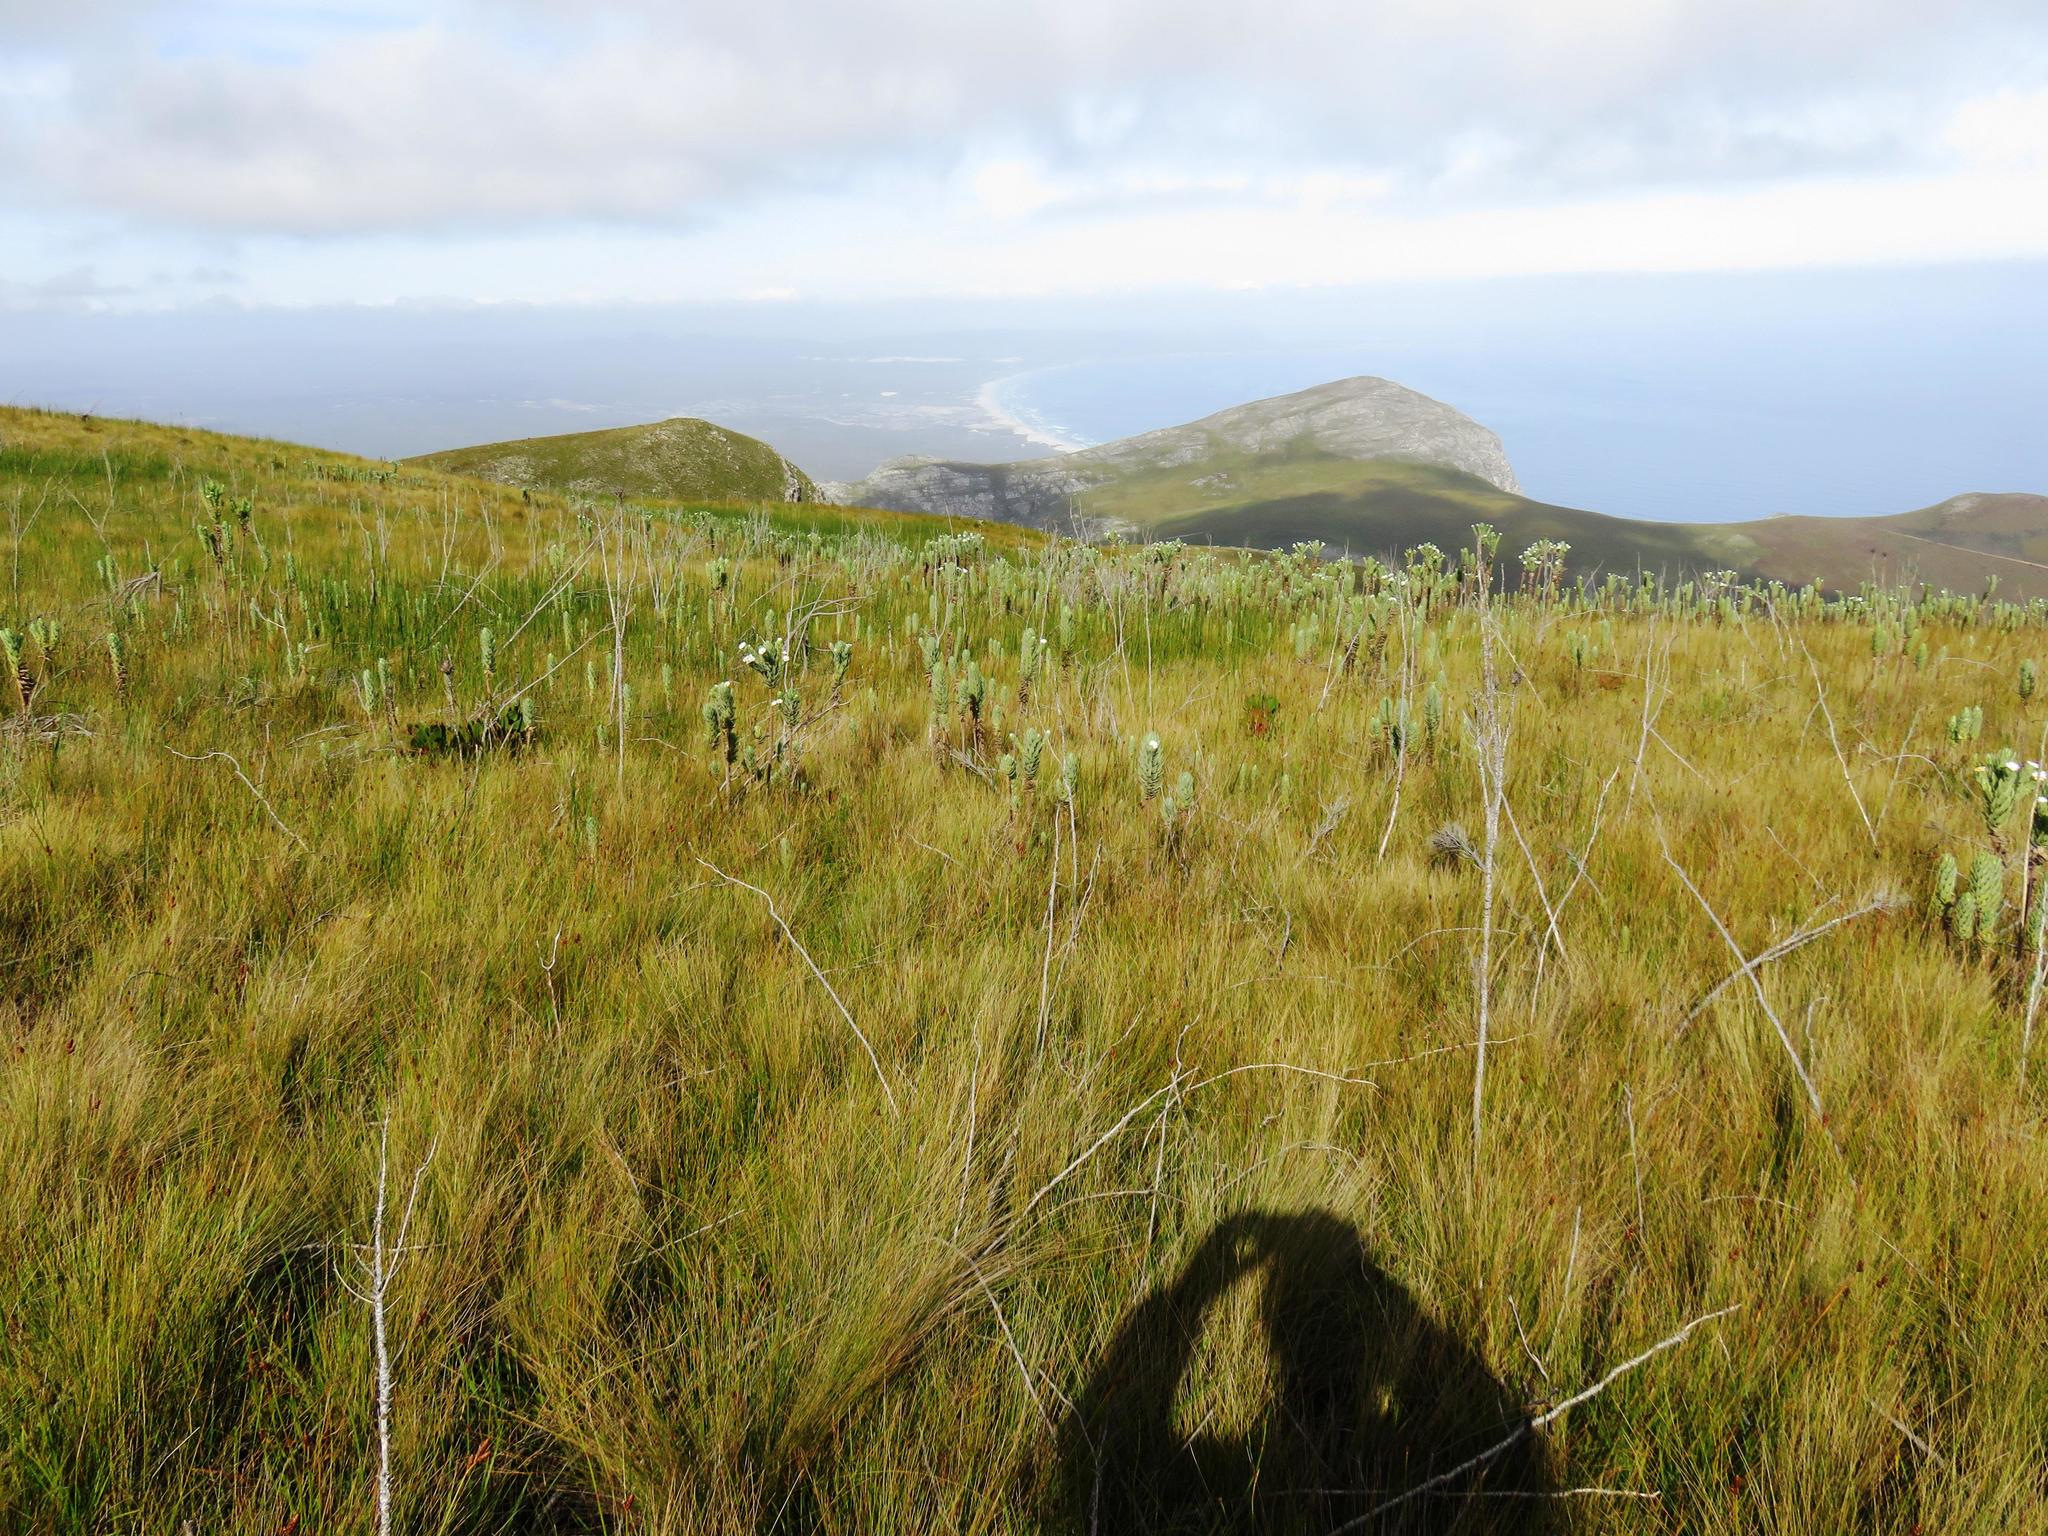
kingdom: Plantae
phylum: Tracheophyta
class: Magnoliopsida
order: Asterales
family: Asteraceae
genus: Osmitopsis
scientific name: Osmitopsis asteriscoides
